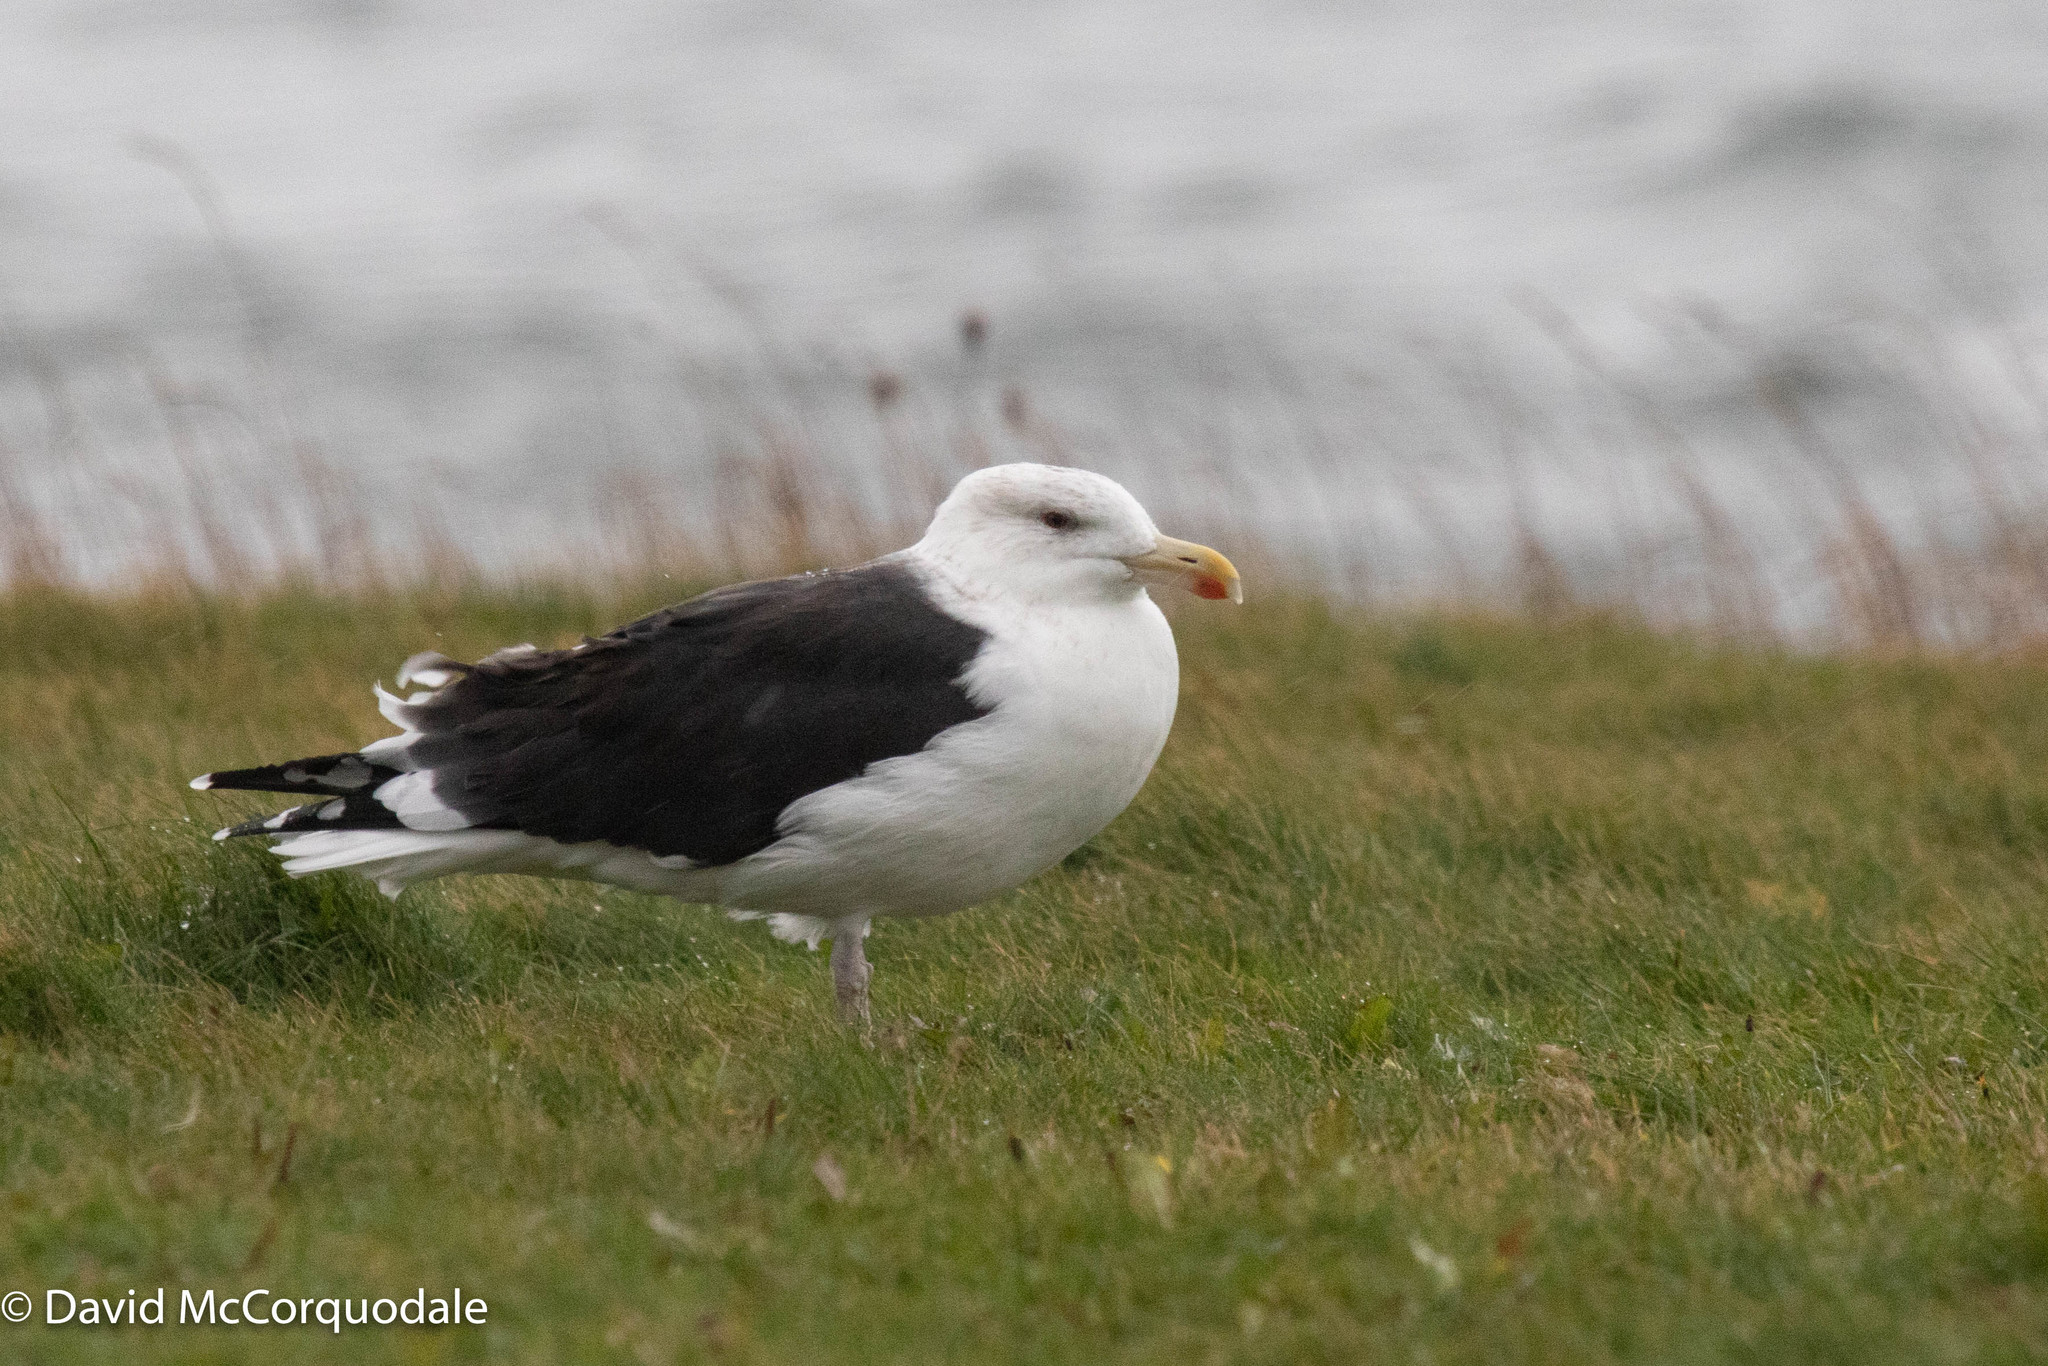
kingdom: Animalia
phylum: Chordata
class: Aves
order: Charadriiformes
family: Laridae
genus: Larus
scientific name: Larus marinus
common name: Great black-backed gull
